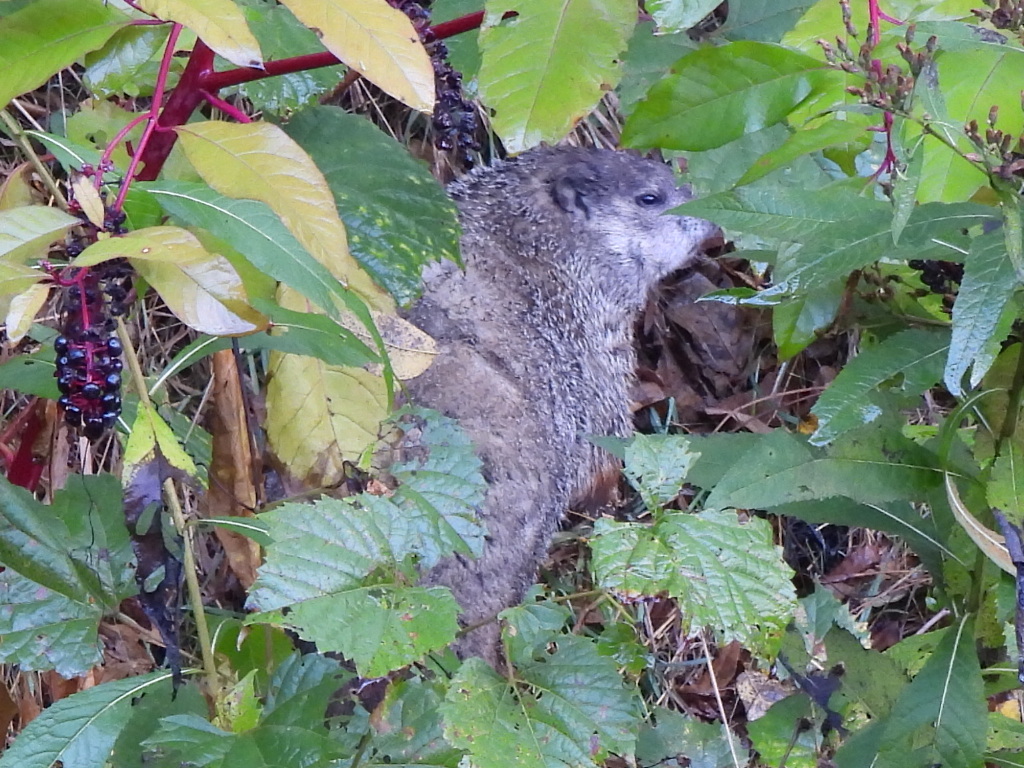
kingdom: Animalia
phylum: Chordata
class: Mammalia
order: Rodentia
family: Sciuridae
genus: Marmota
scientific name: Marmota monax
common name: Groundhog
